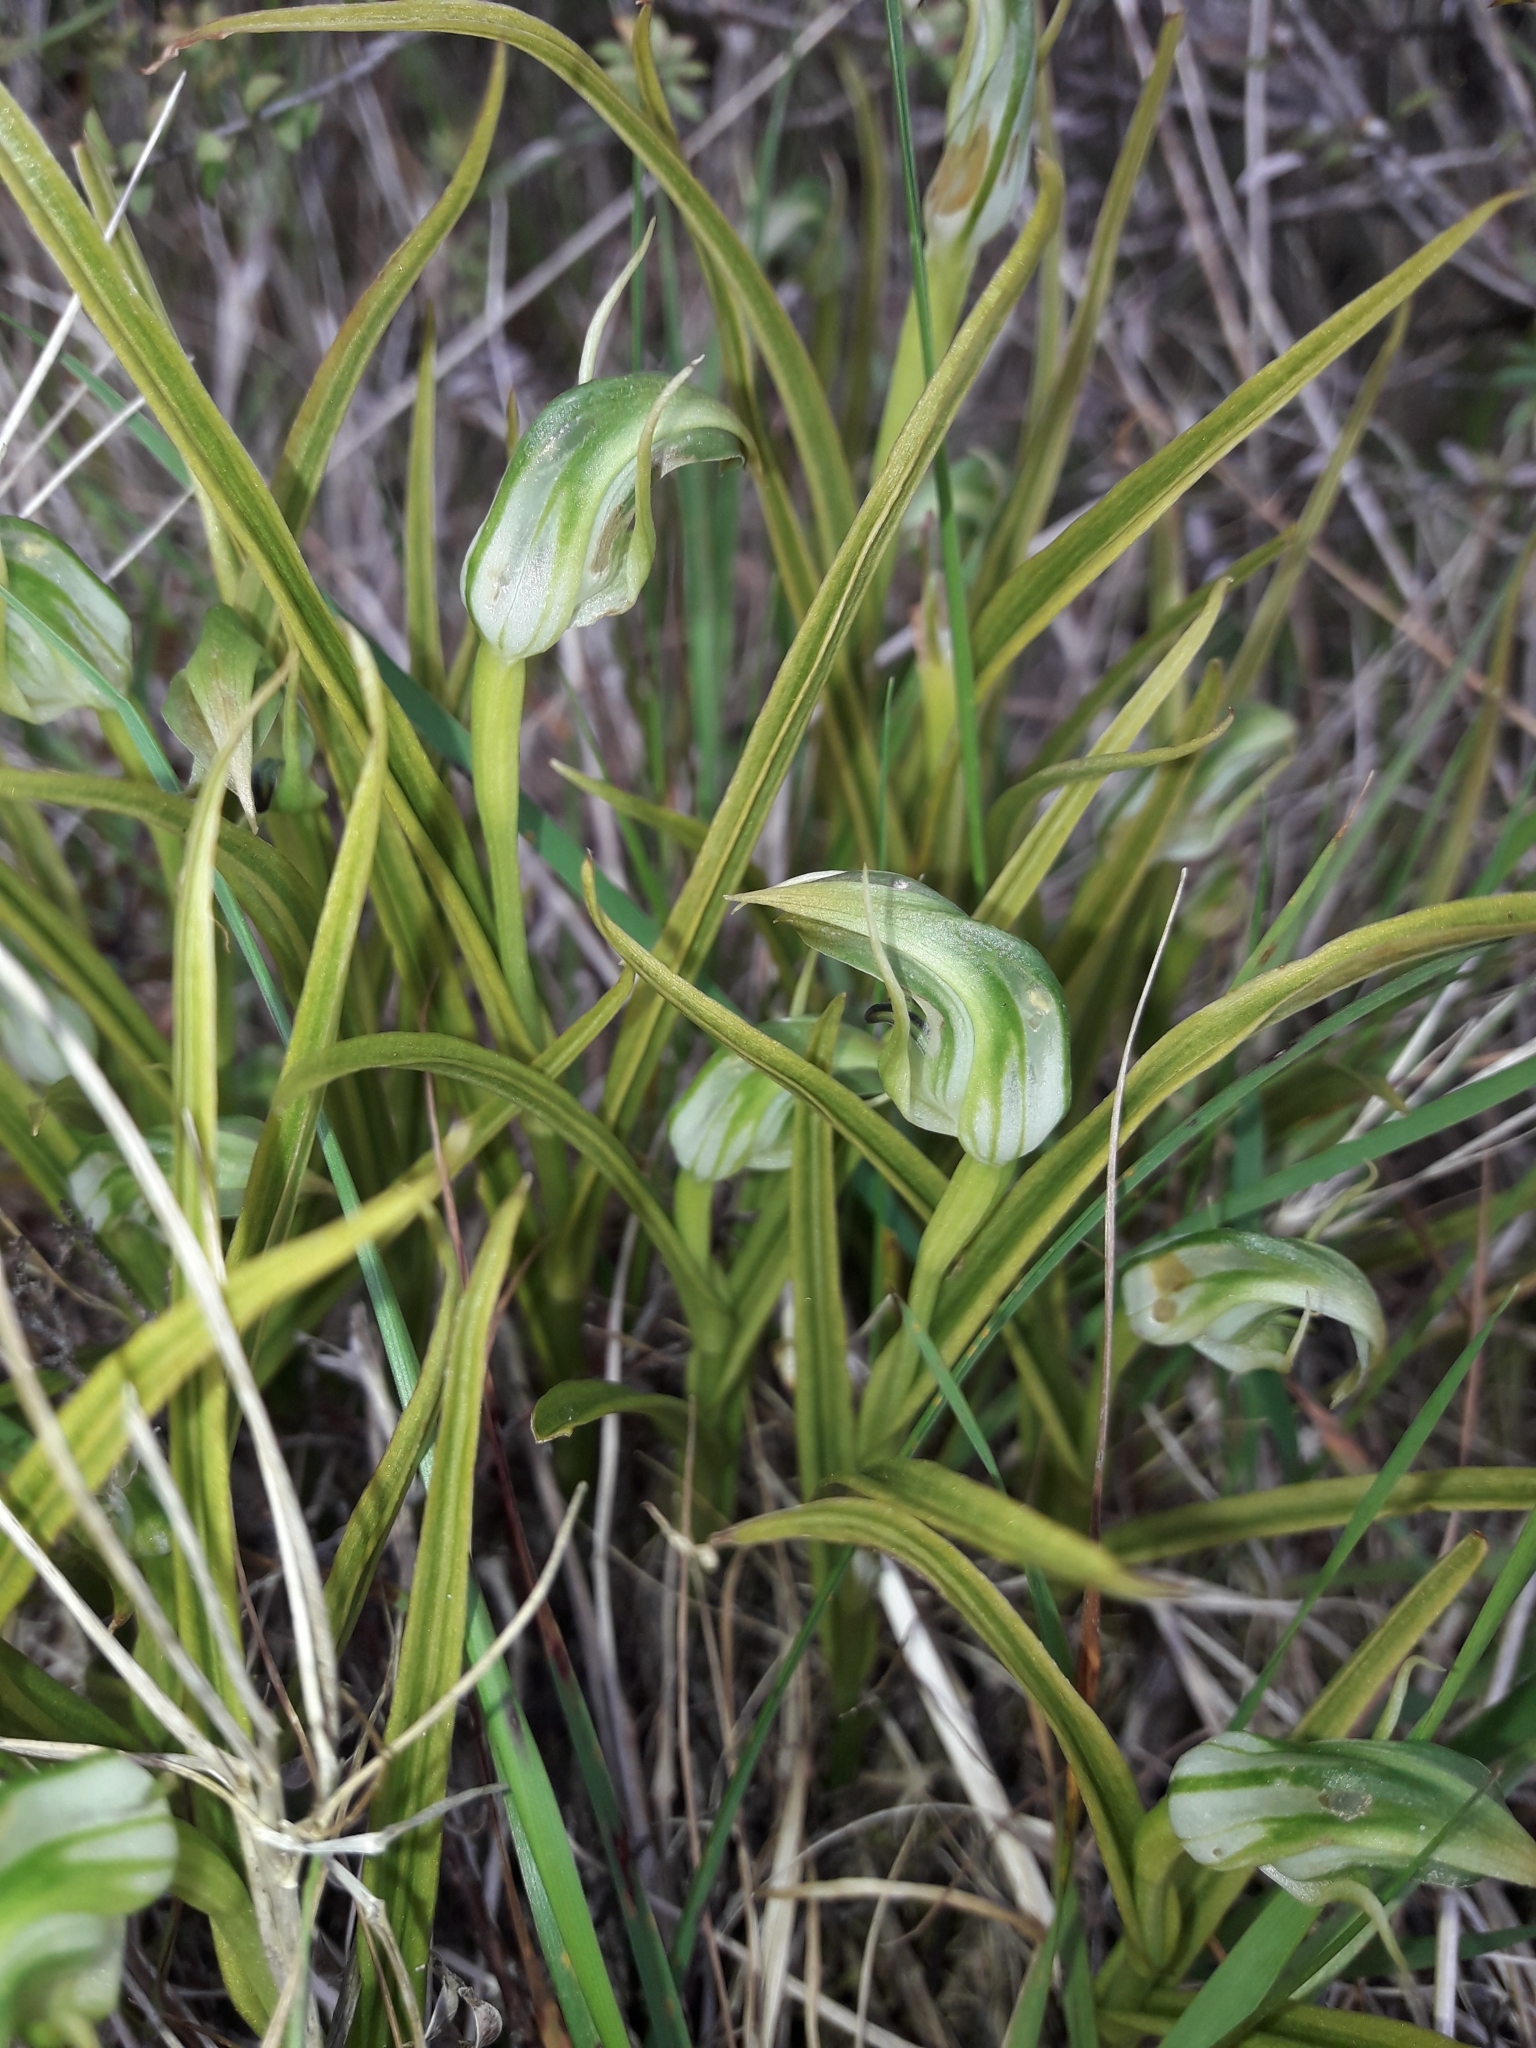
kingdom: Plantae
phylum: Tracheophyta
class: Liliopsida
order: Asparagales
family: Orchidaceae
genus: Pterostylis
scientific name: Pterostylis graminea
